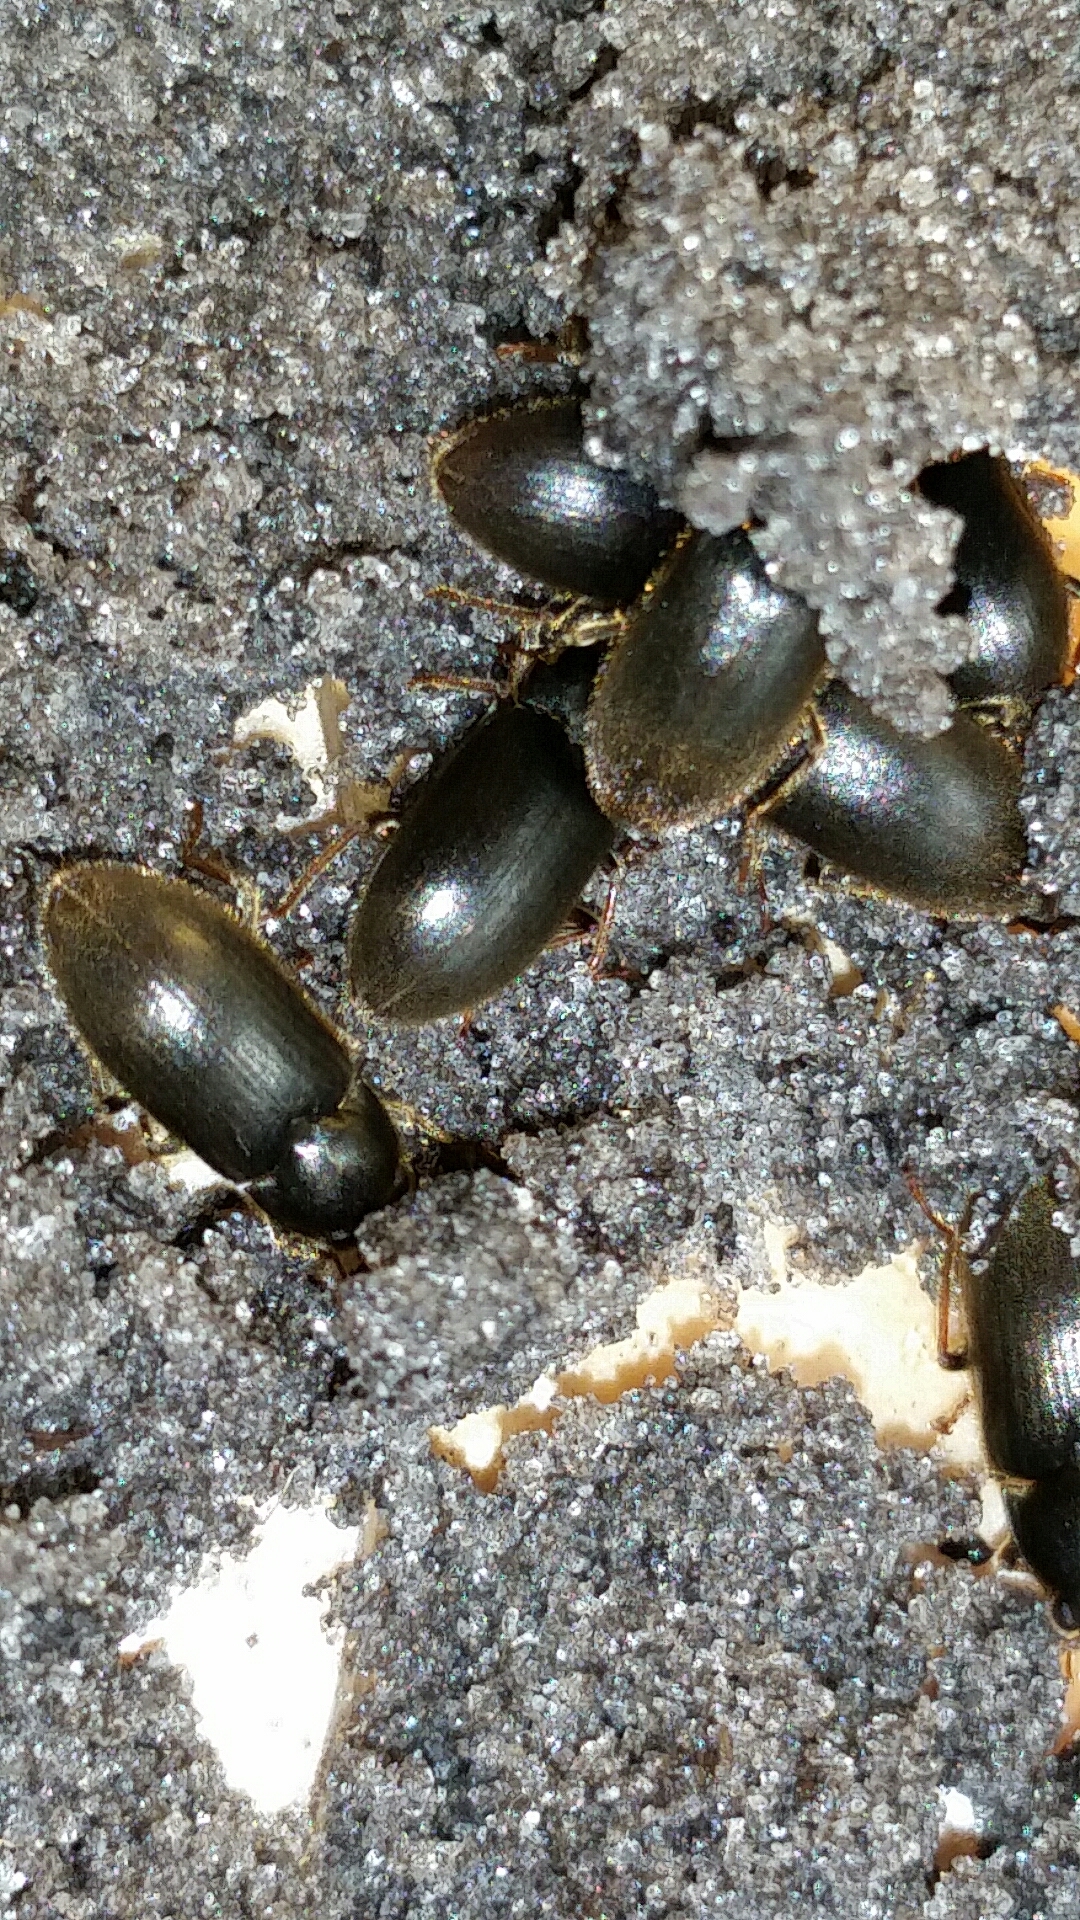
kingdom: Animalia
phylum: Arthropoda
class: Insecta
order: Coleoptera
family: Dryopidae
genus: Pelonomus
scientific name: Pelonomus obscurus
